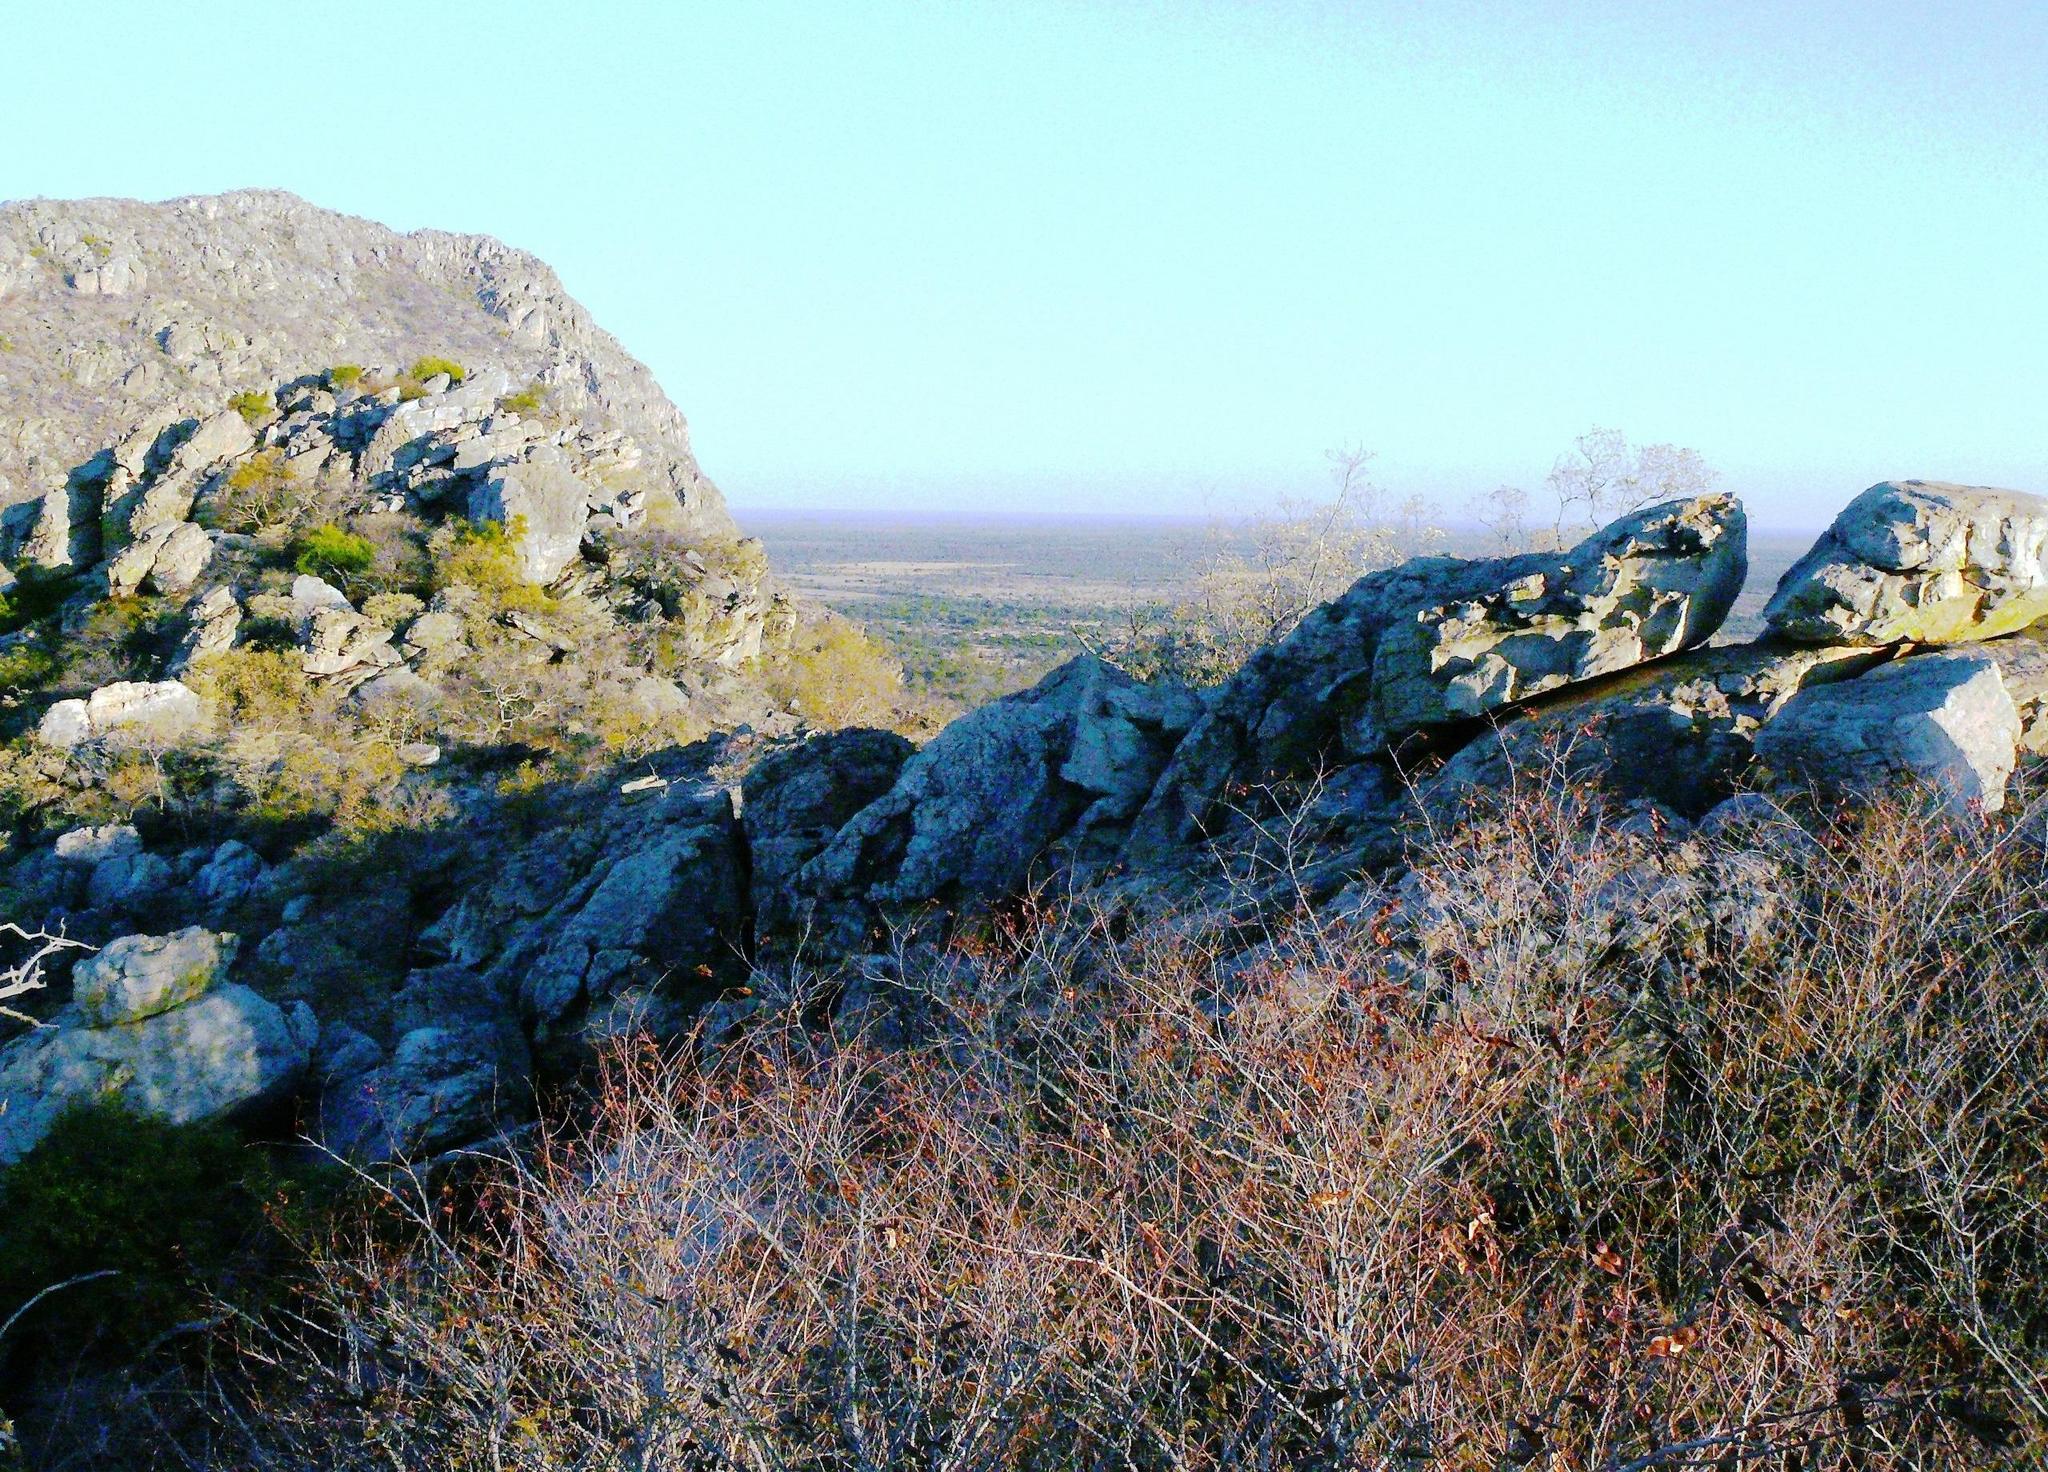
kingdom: Plantae
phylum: Tracheophyta
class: Magnoliopsida
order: Fabales
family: Fabaceae
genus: Colophospermum
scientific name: Colophospermum mopane
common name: Mopane
